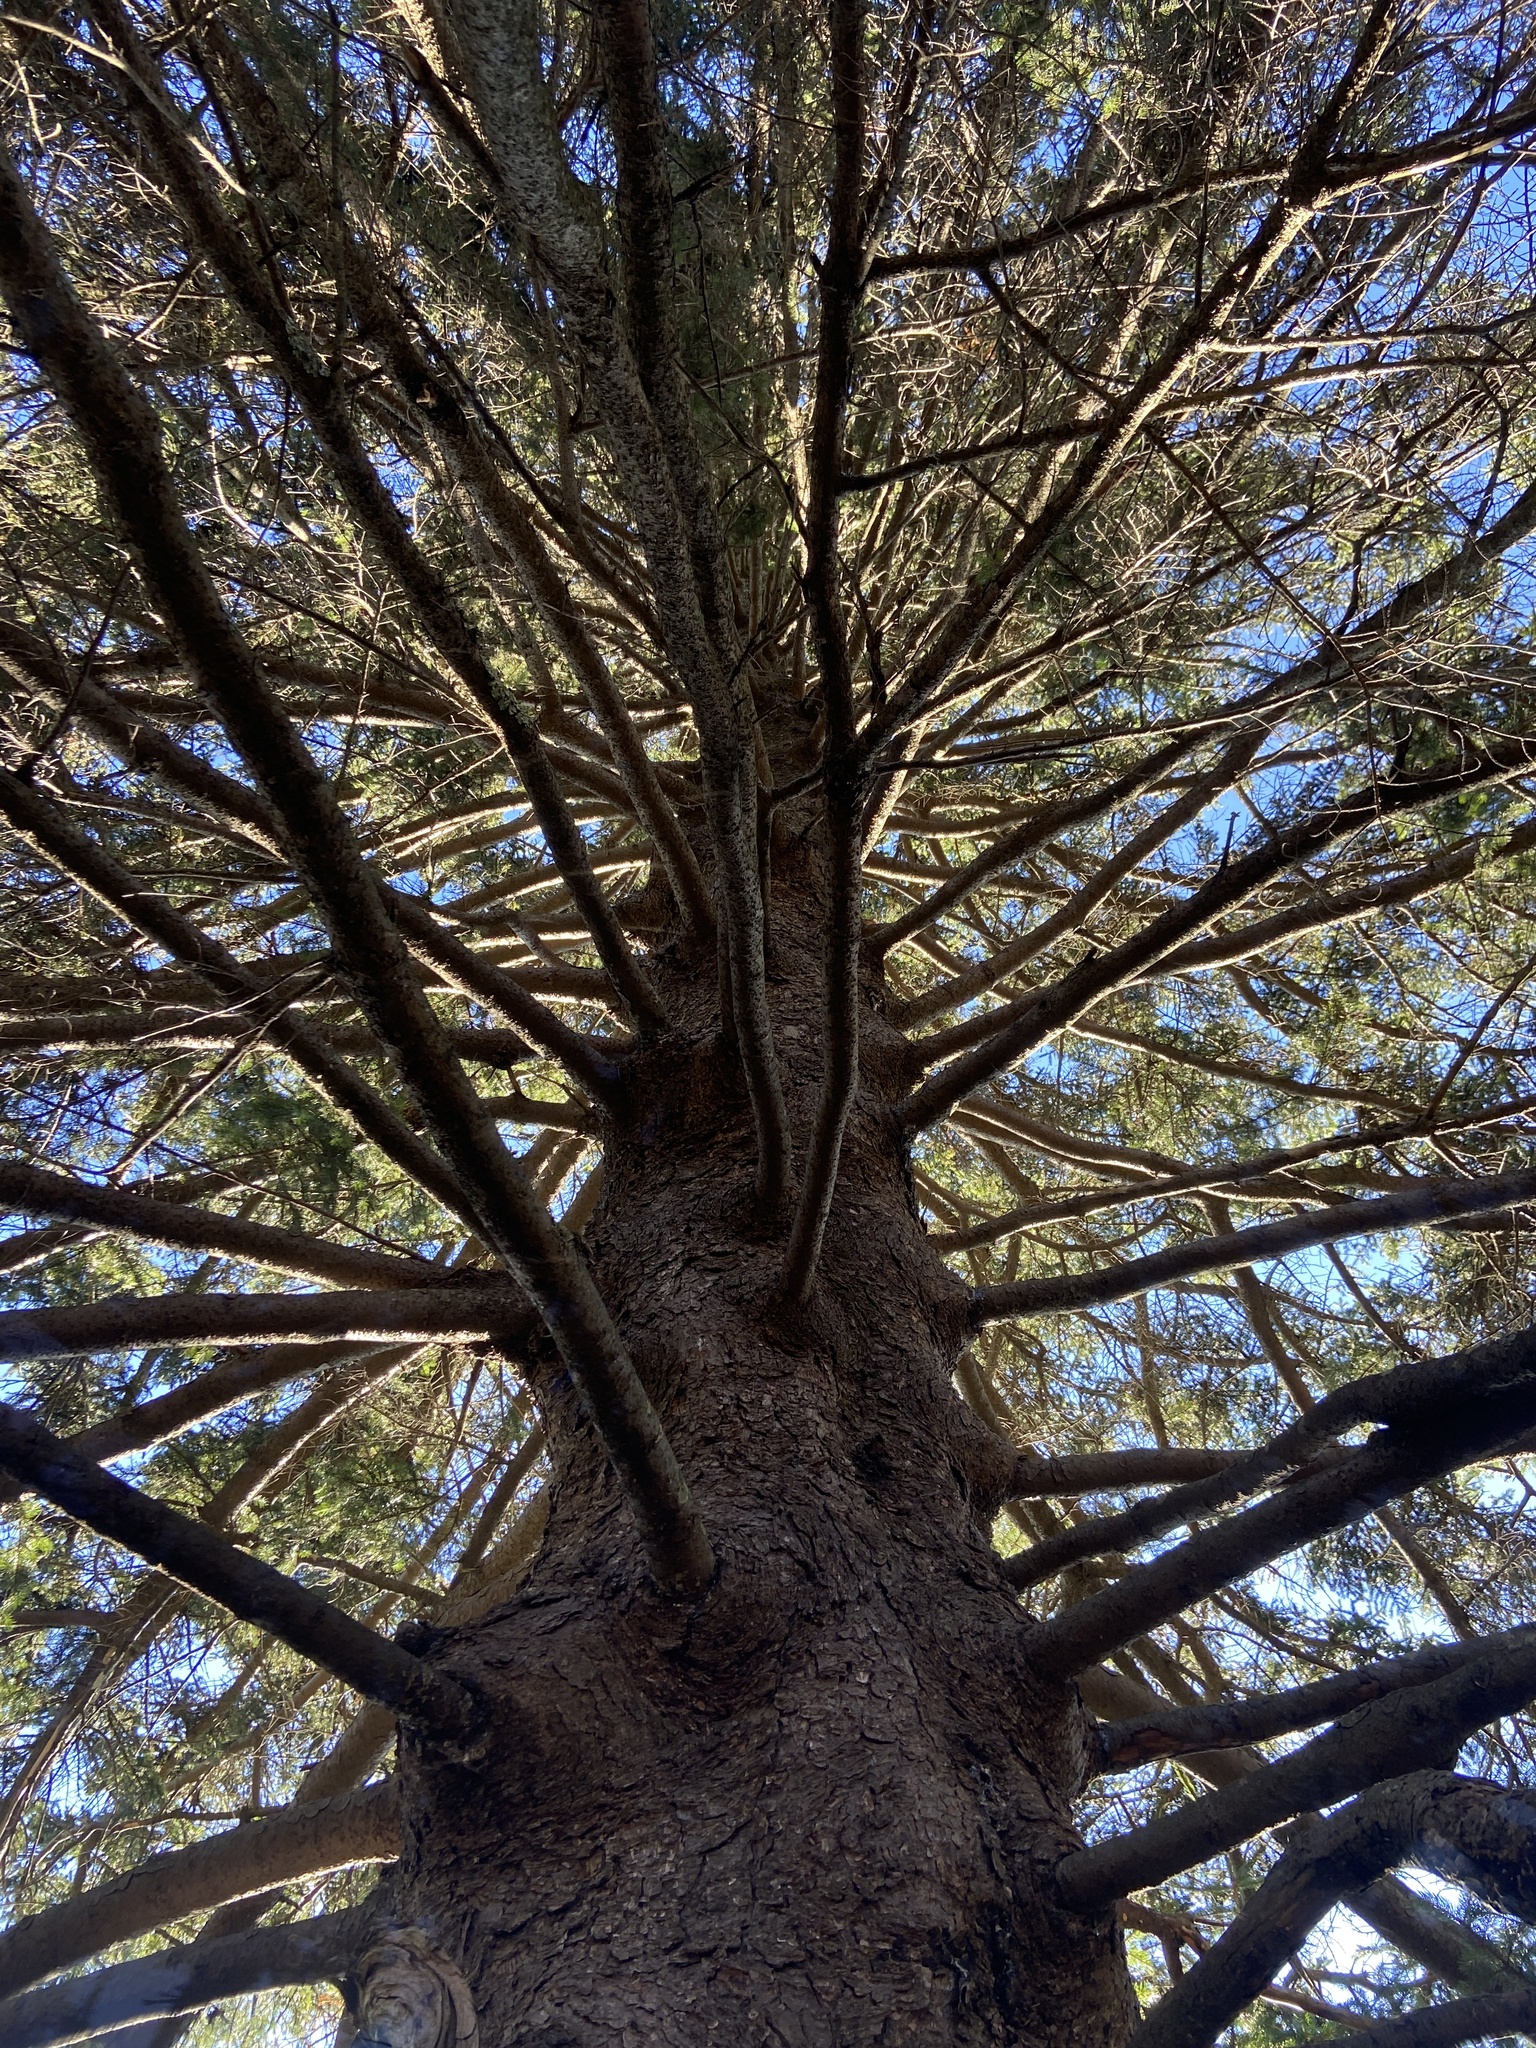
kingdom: Plantae
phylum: Tracheophyta
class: Pinopsida
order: Pinales
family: Pinaceae
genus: Picea
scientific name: Picea rubens
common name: Red spruce
